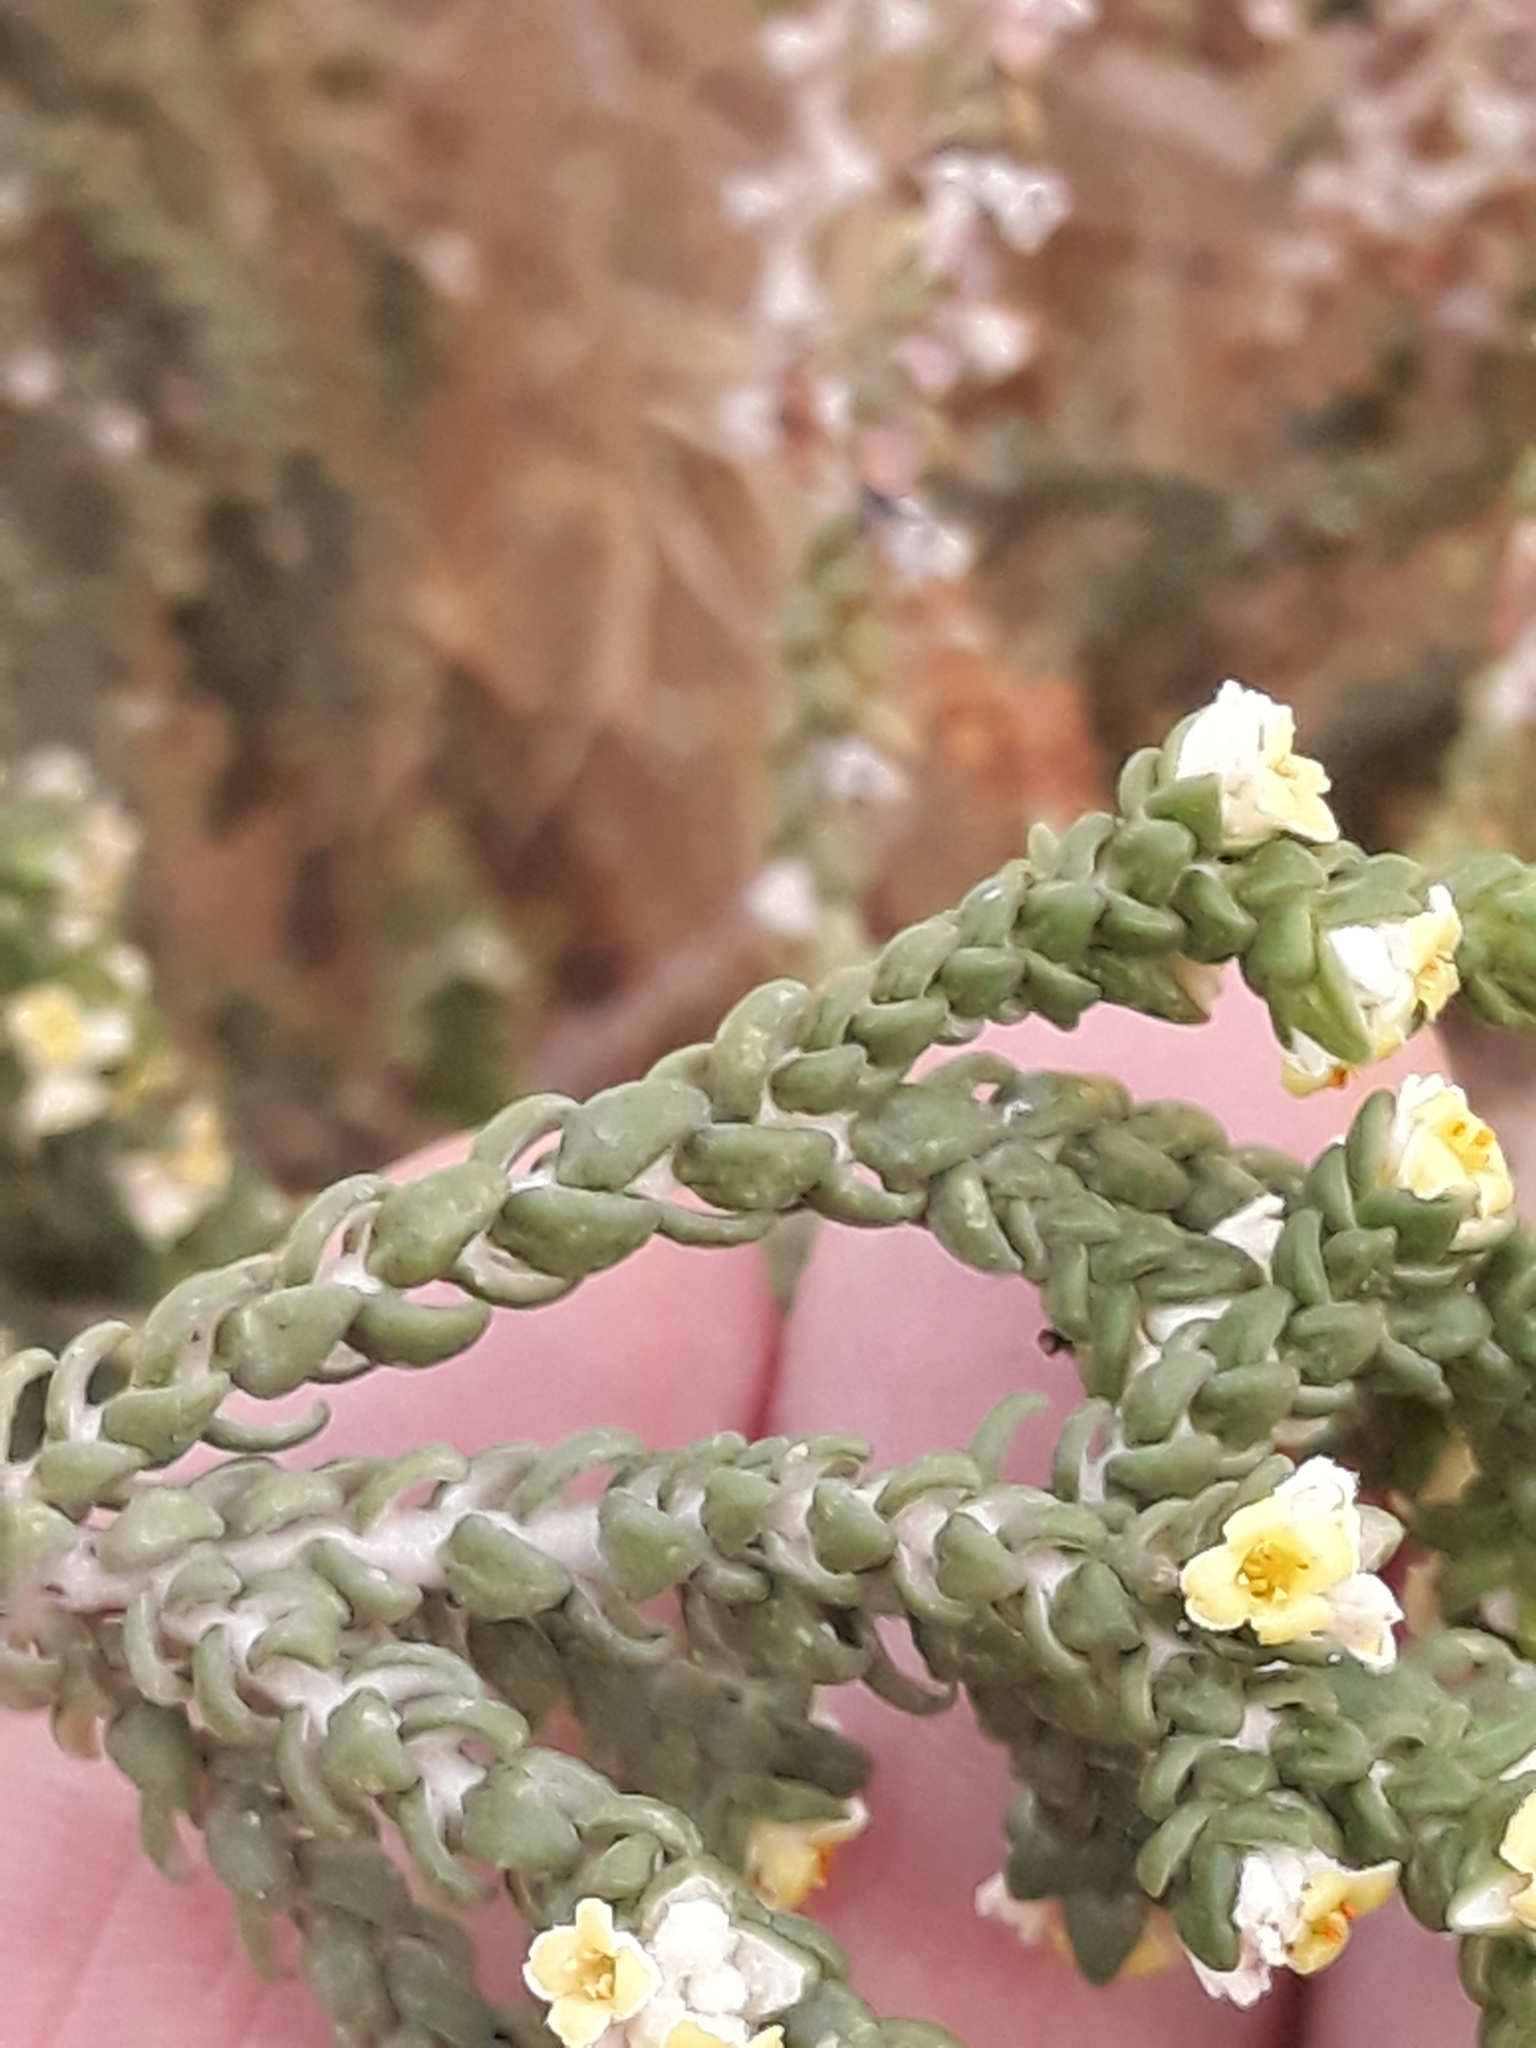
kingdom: Plantae
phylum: Tracheophyta
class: Magnoliopsida
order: Malvales
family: Thymelaeaceae
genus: Thymelaea
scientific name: Thymelaea hirsuta
